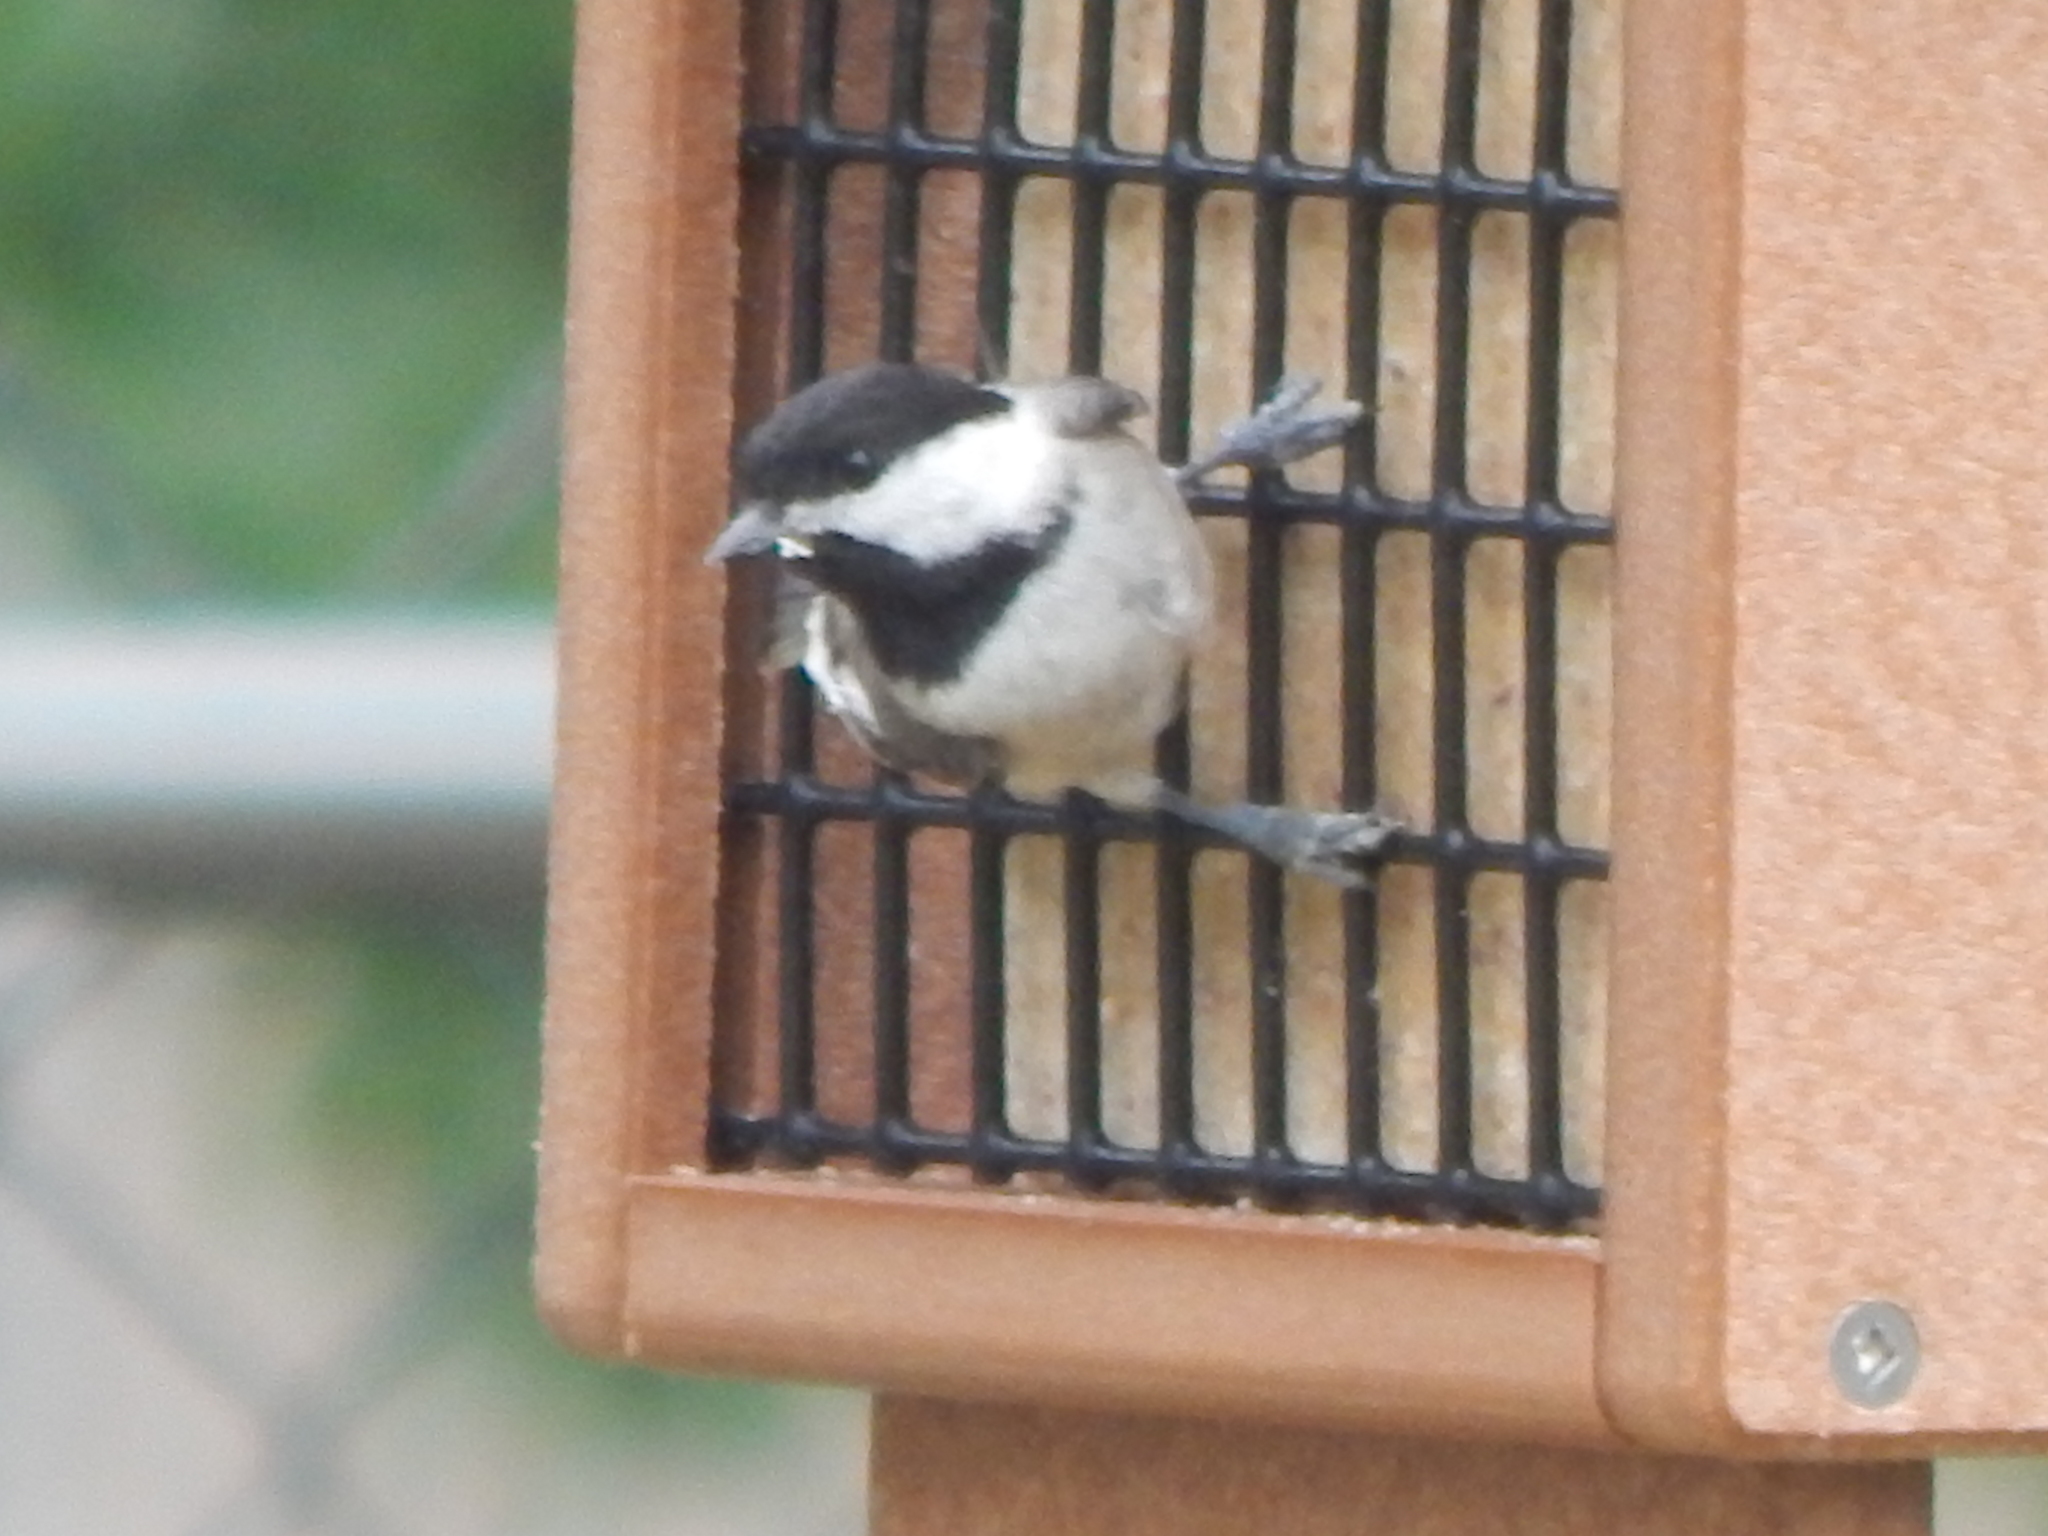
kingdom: Animalia
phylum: Chordata
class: Aves
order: Passeriformes
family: Paridae
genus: Poecile
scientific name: Poecile carolinensis
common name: Carolina chickadee
